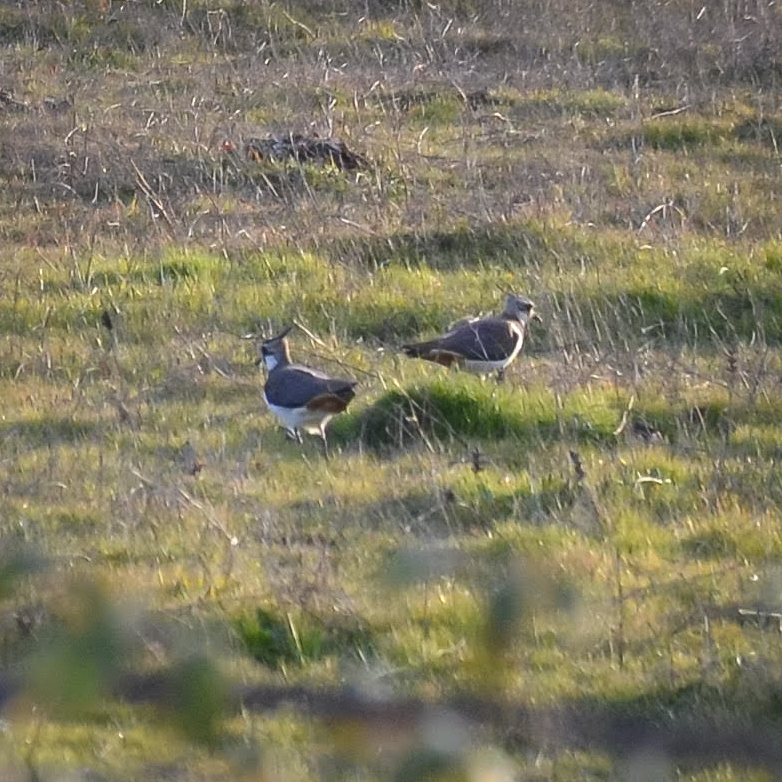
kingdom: Animalia
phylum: Chordata
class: Aves
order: Charadriiformes
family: Charadriidae
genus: Vanellus
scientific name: Vanellus vanellus
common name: Northern lapwing
